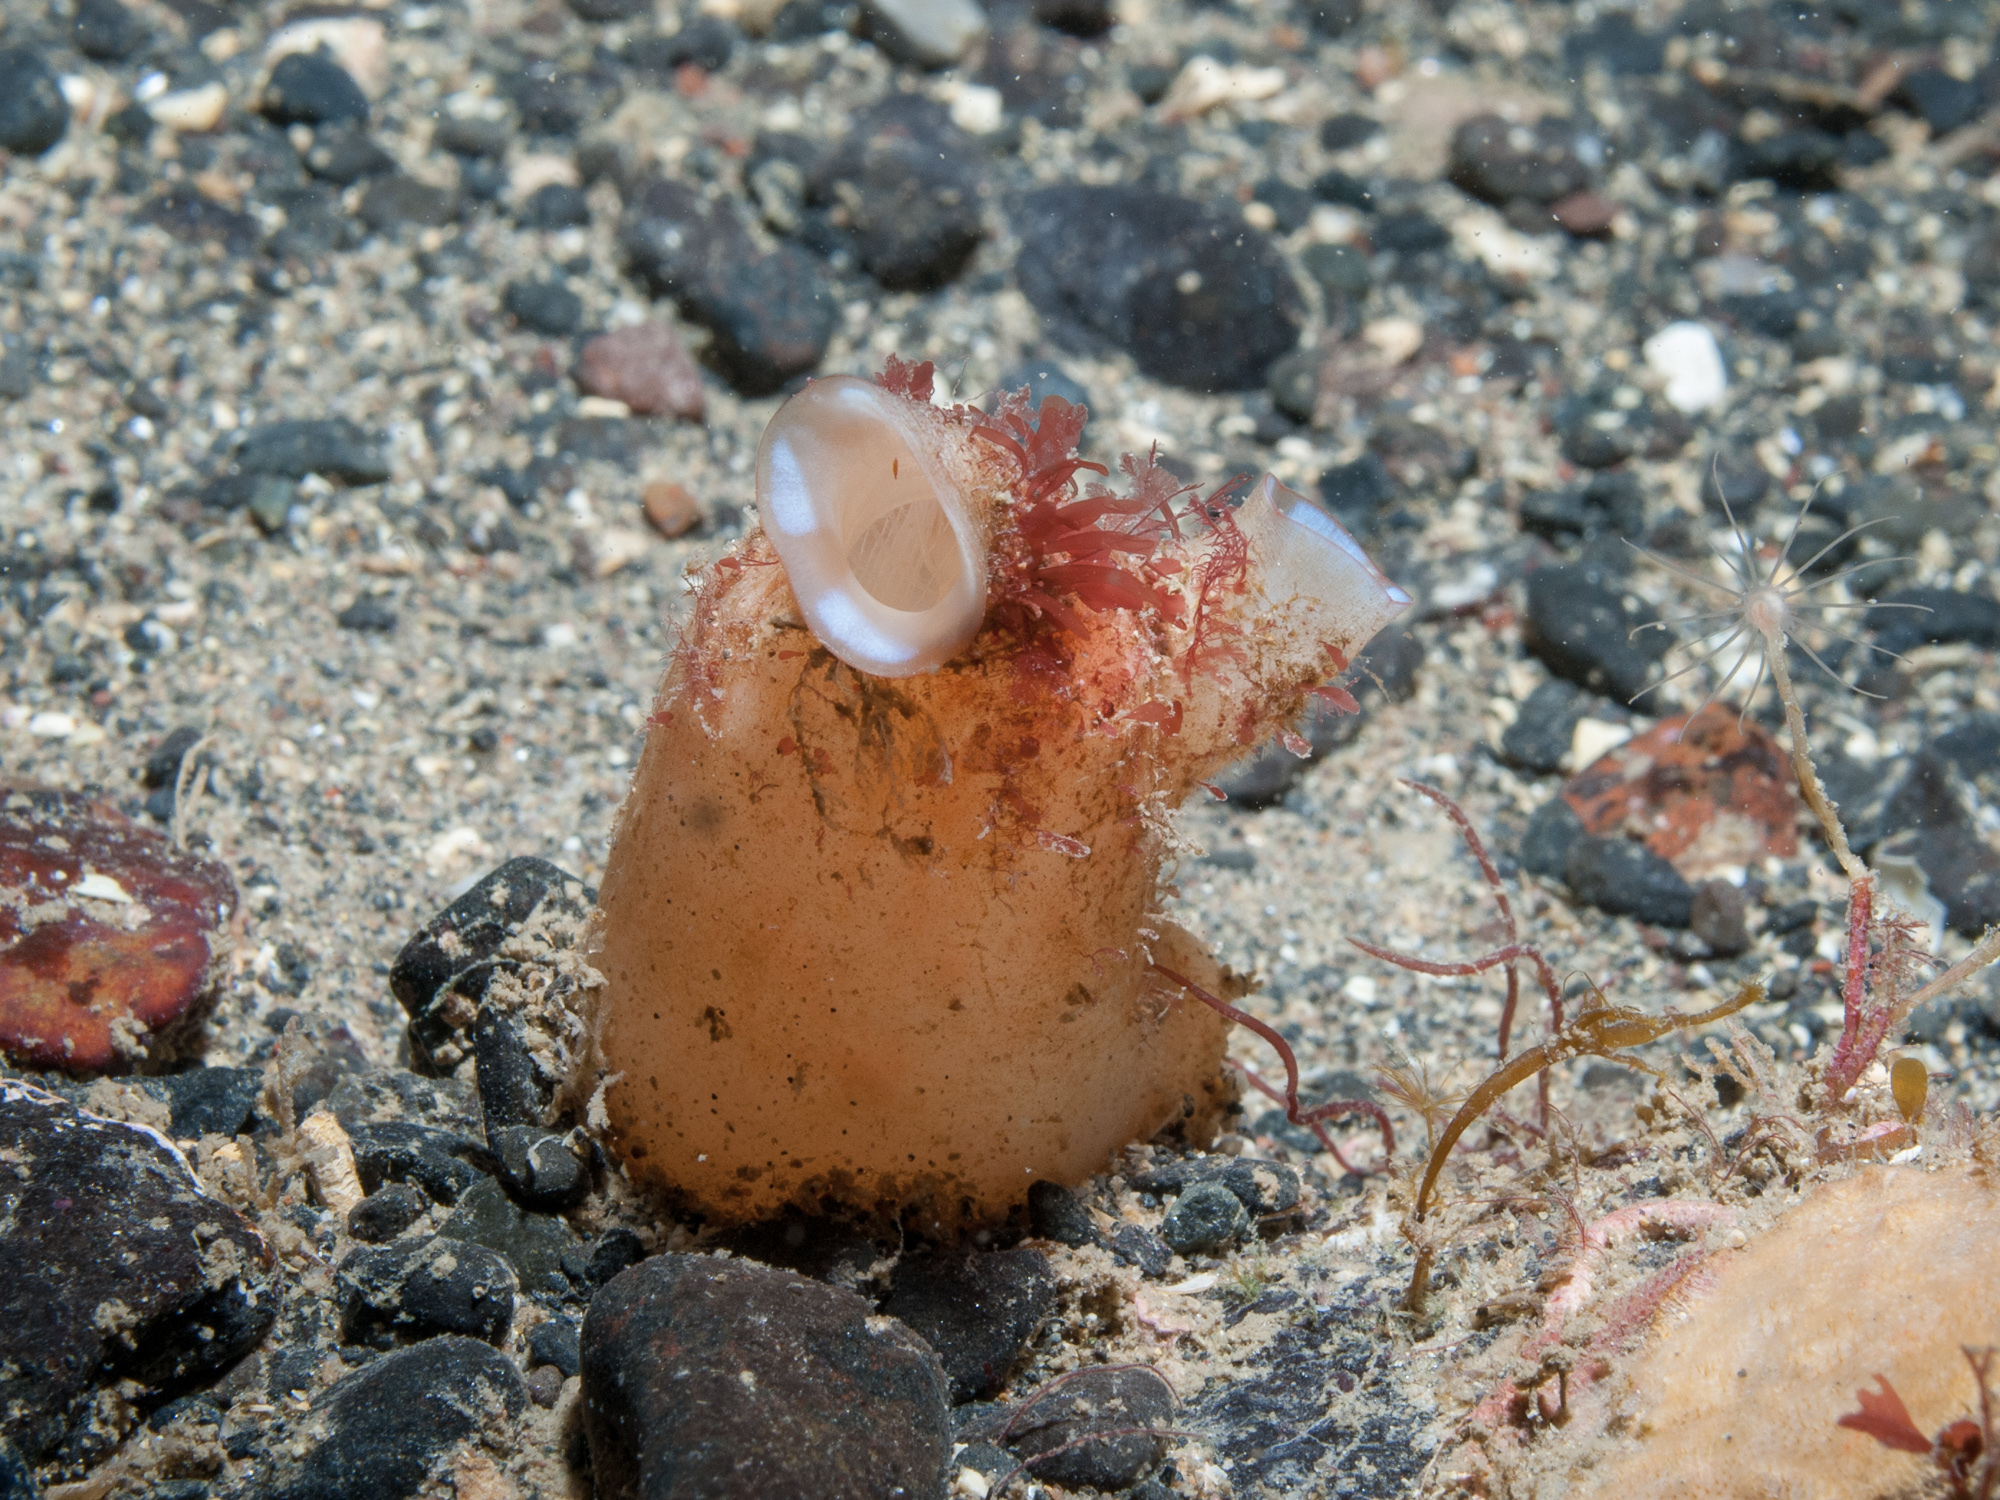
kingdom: Animalia
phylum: Chordata
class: Ascidiacea
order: Stolidobranchia
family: Styelidae
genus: Polycarpa
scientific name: Polycarpa pomaria
